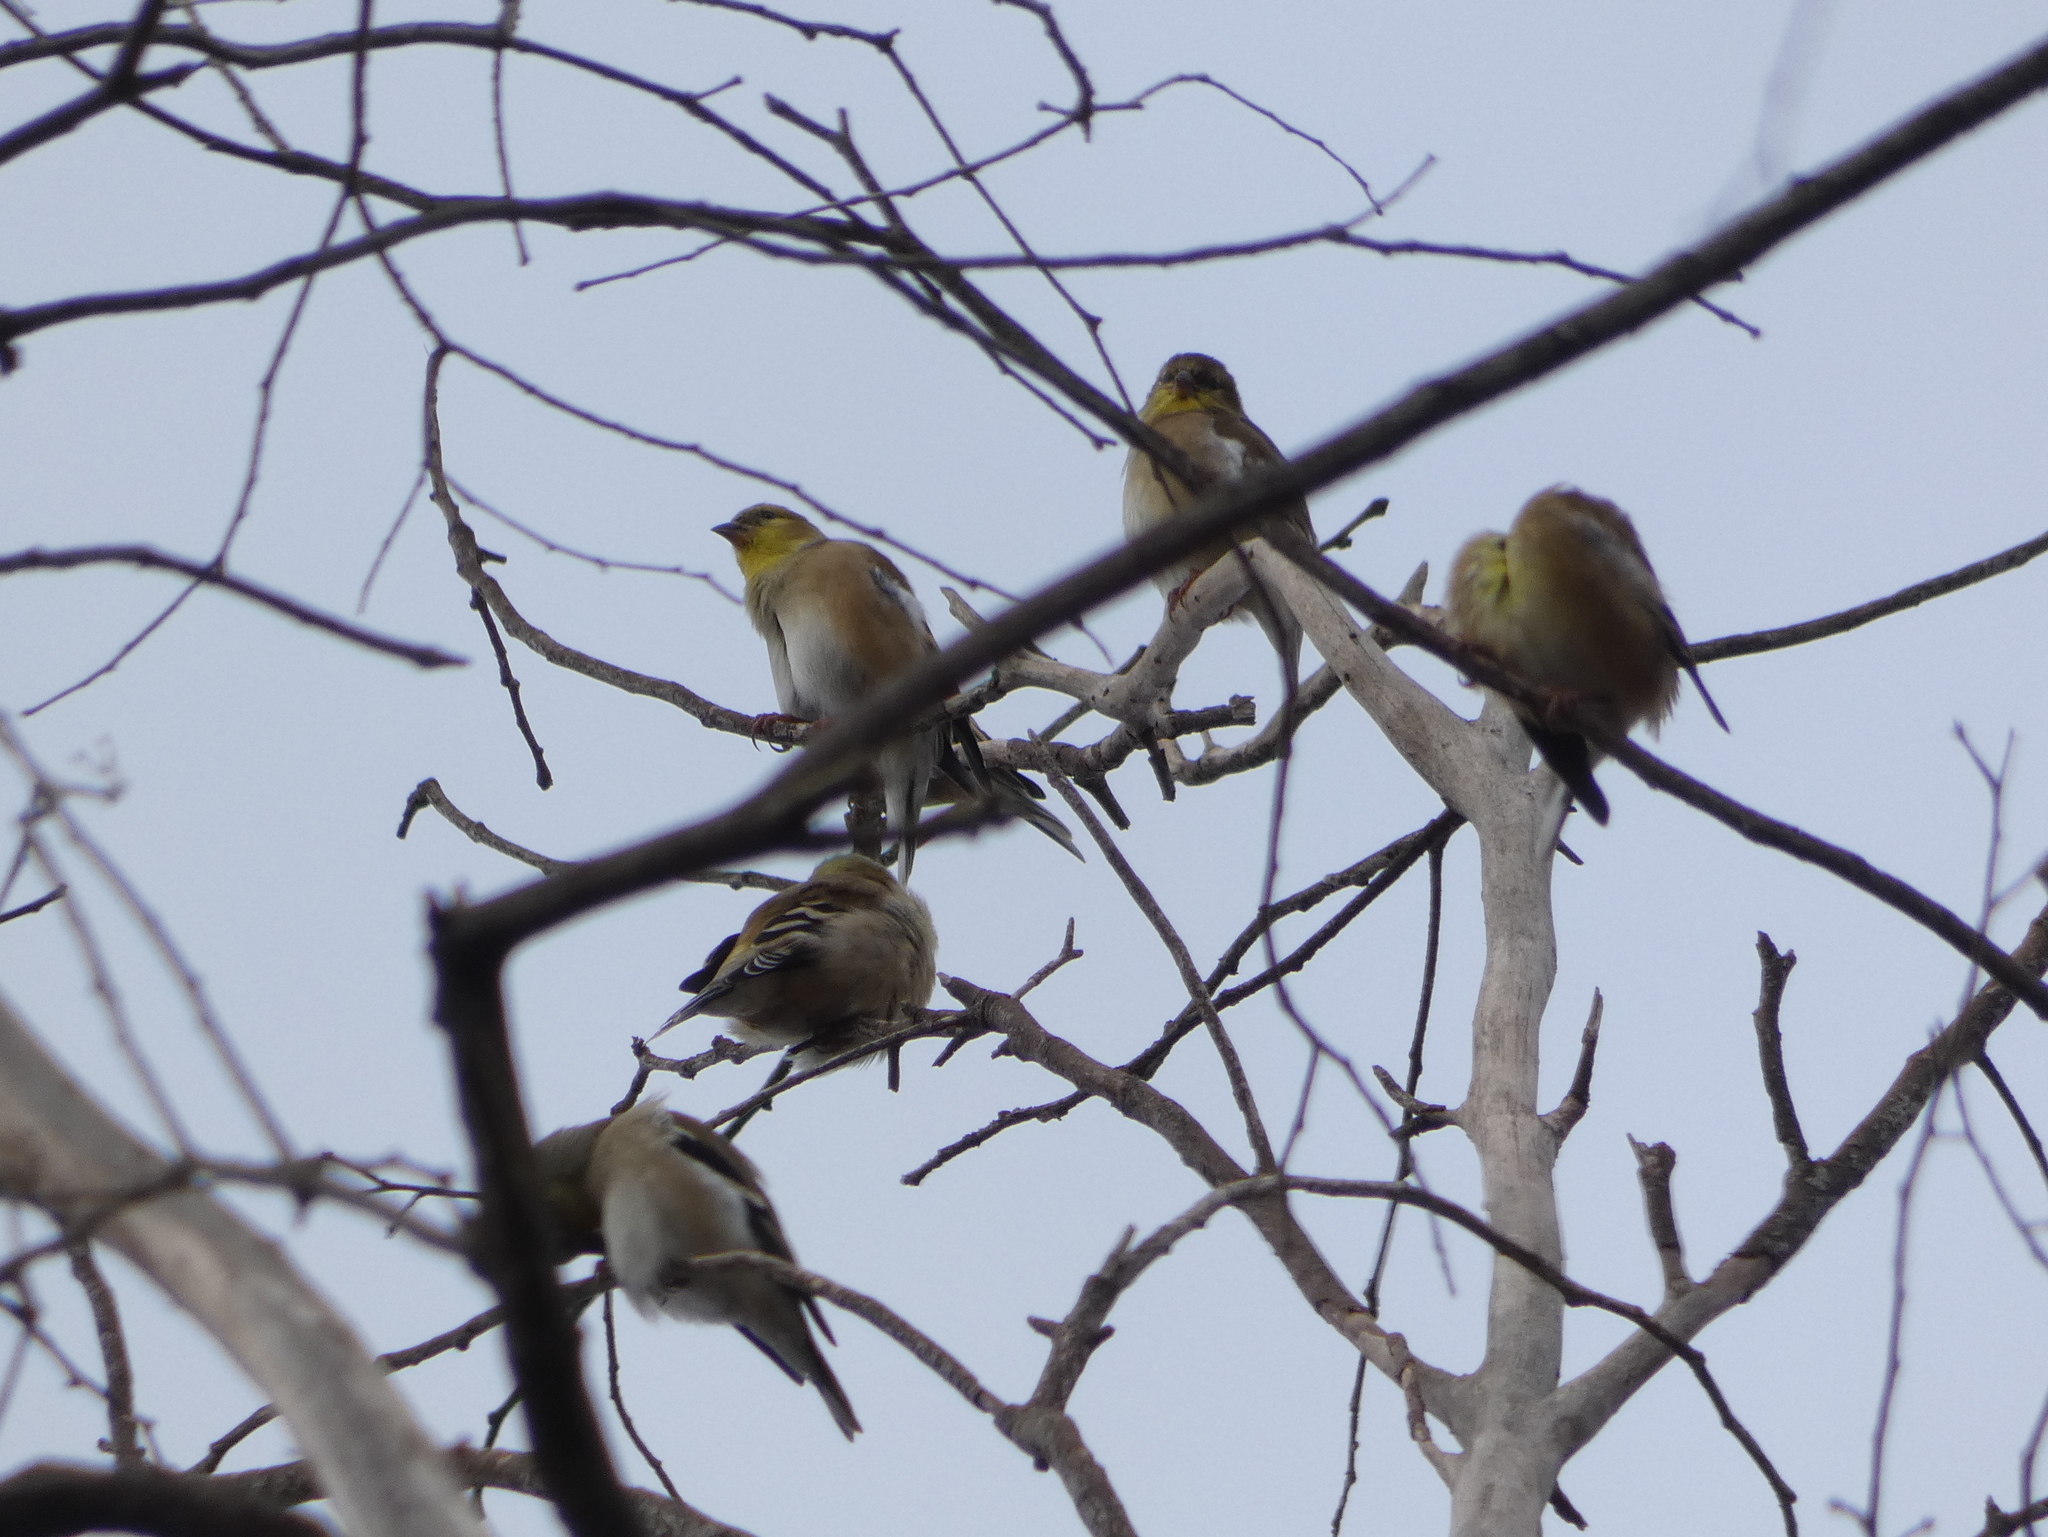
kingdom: Animalia
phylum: Chordata
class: Aves
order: Passeriformes
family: Fringillidae
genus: Spinus
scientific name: Spinus tristis
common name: American goldfinch
